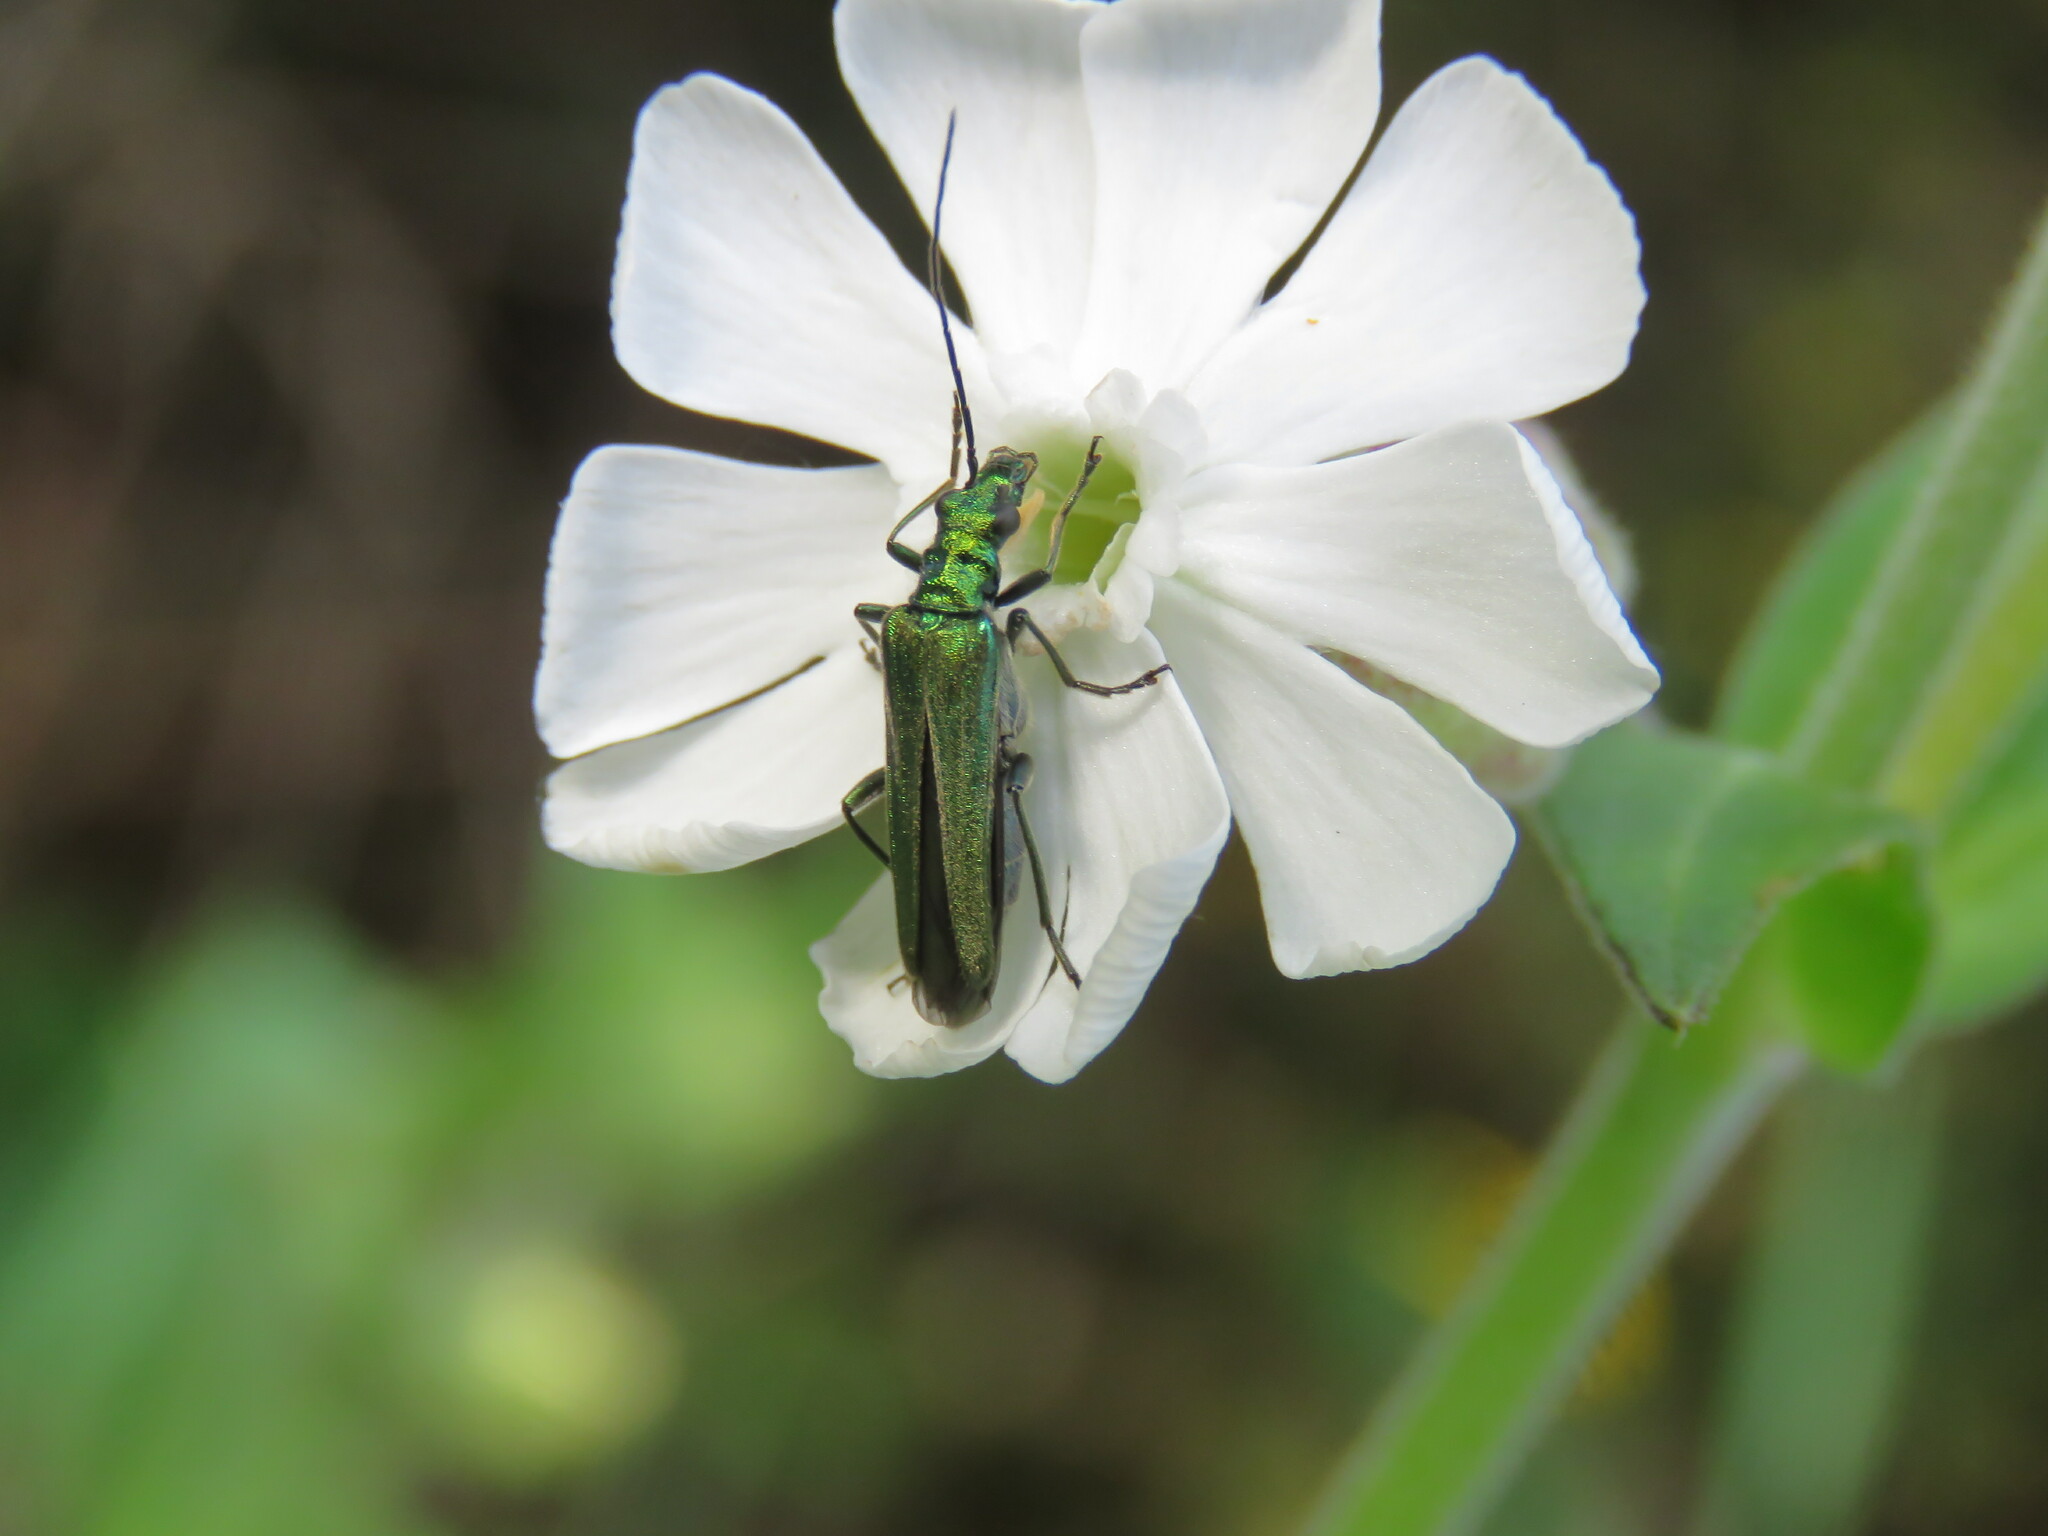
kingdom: Animalia
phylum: Arthropoda
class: Insecta
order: Coleoptera
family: Oedemeridae
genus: Oedemera
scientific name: Oedemera nobilis
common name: Swollen-thighed beetle
